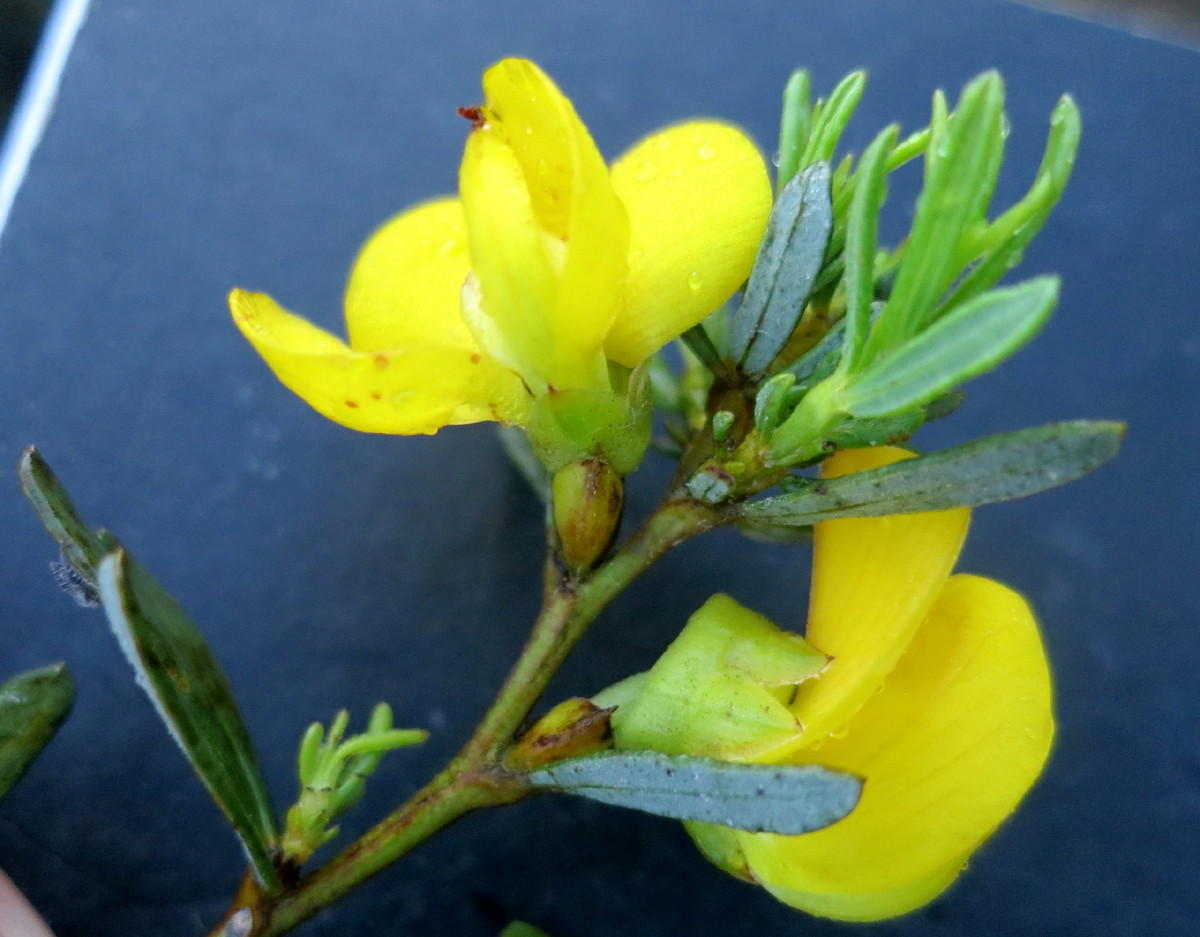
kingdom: Plantae
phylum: Tracheophyta
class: Magnoliopsida
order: Fabales
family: Fabaceae
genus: Cyclopia
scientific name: Cyclopia intermedia
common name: Mountain tea
